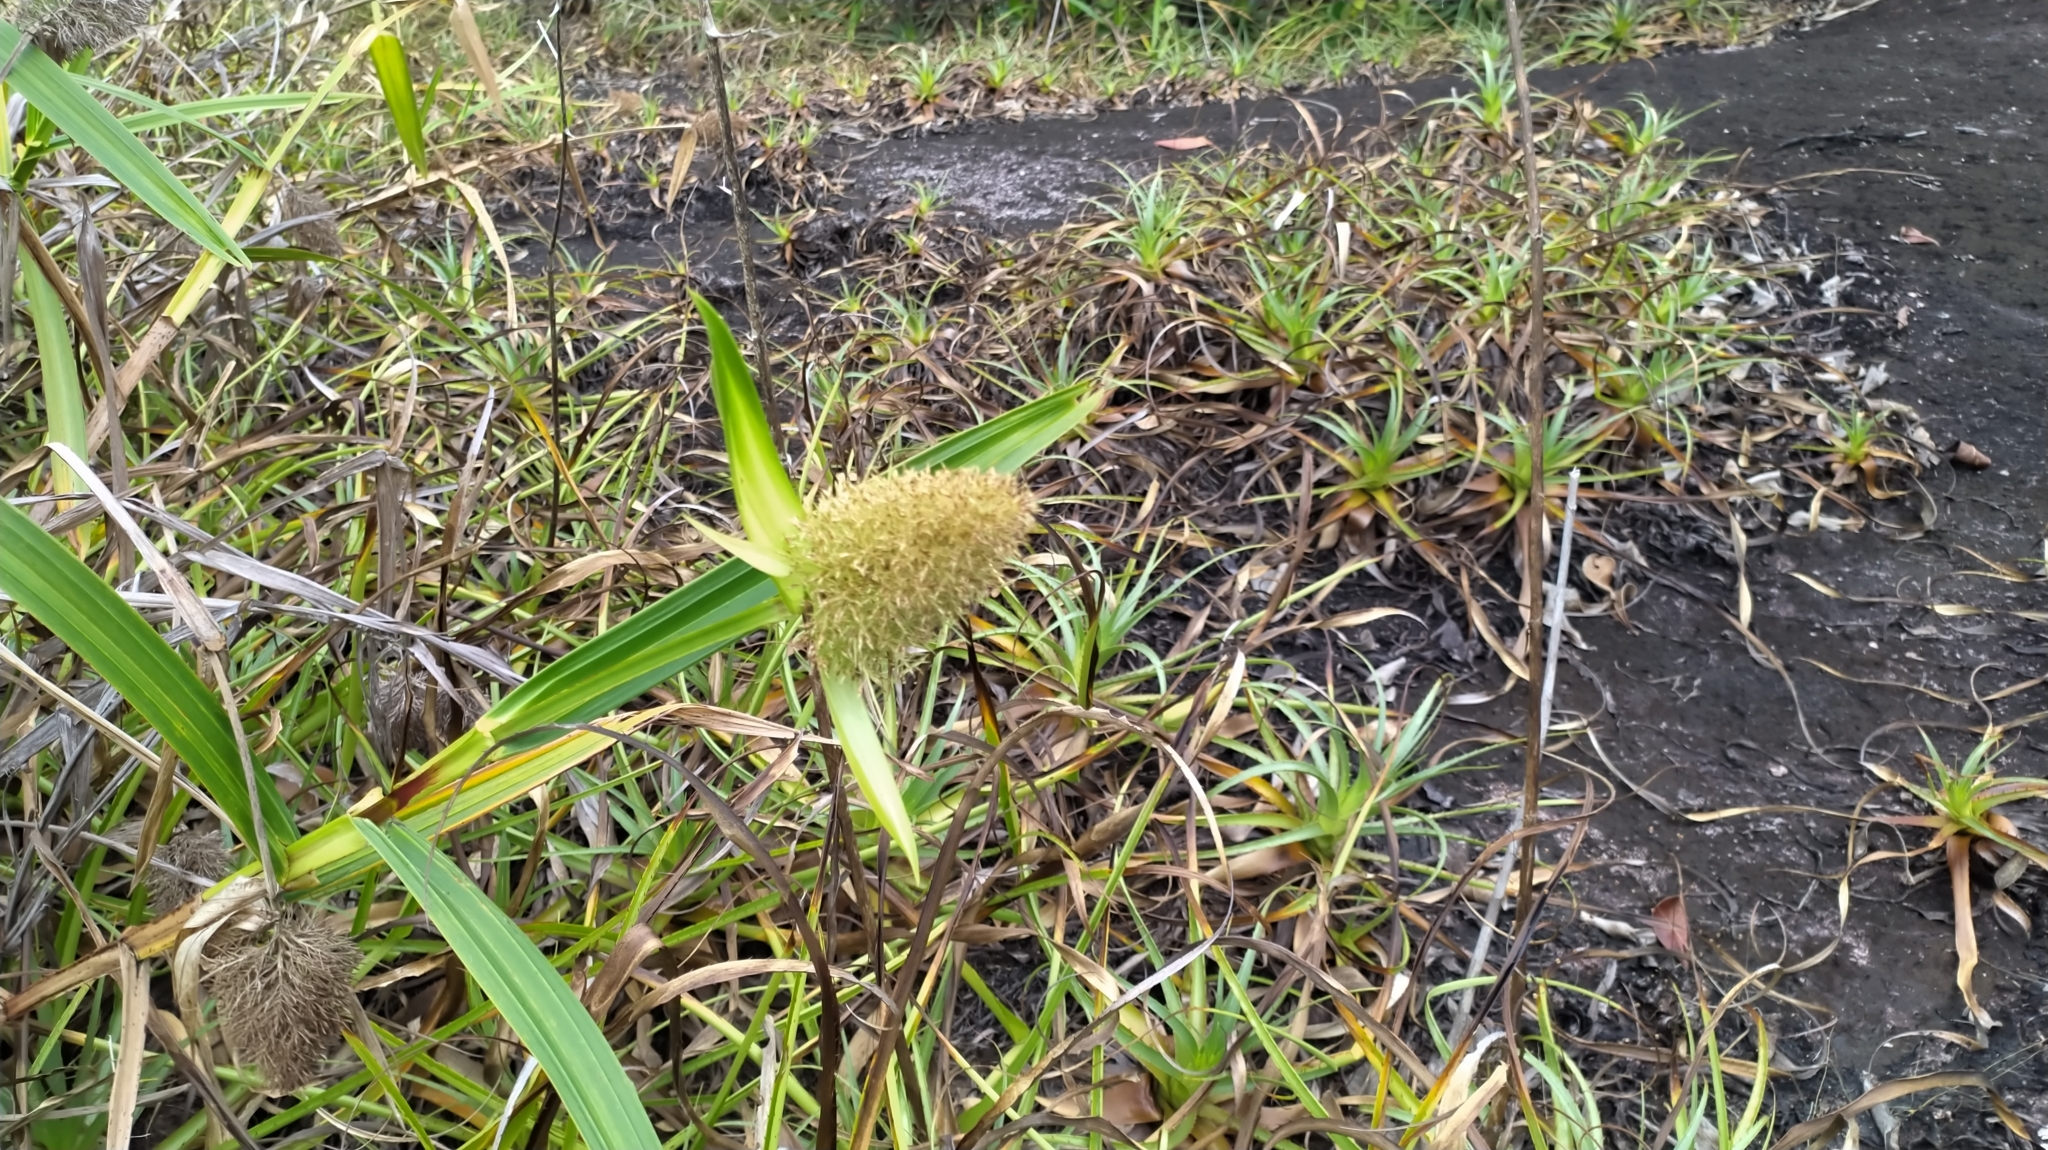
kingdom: Plantae
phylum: Tracheophyta
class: Liliopsida
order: Poales
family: Cyperaceae
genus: Scleria
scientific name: Scleria cyperina
